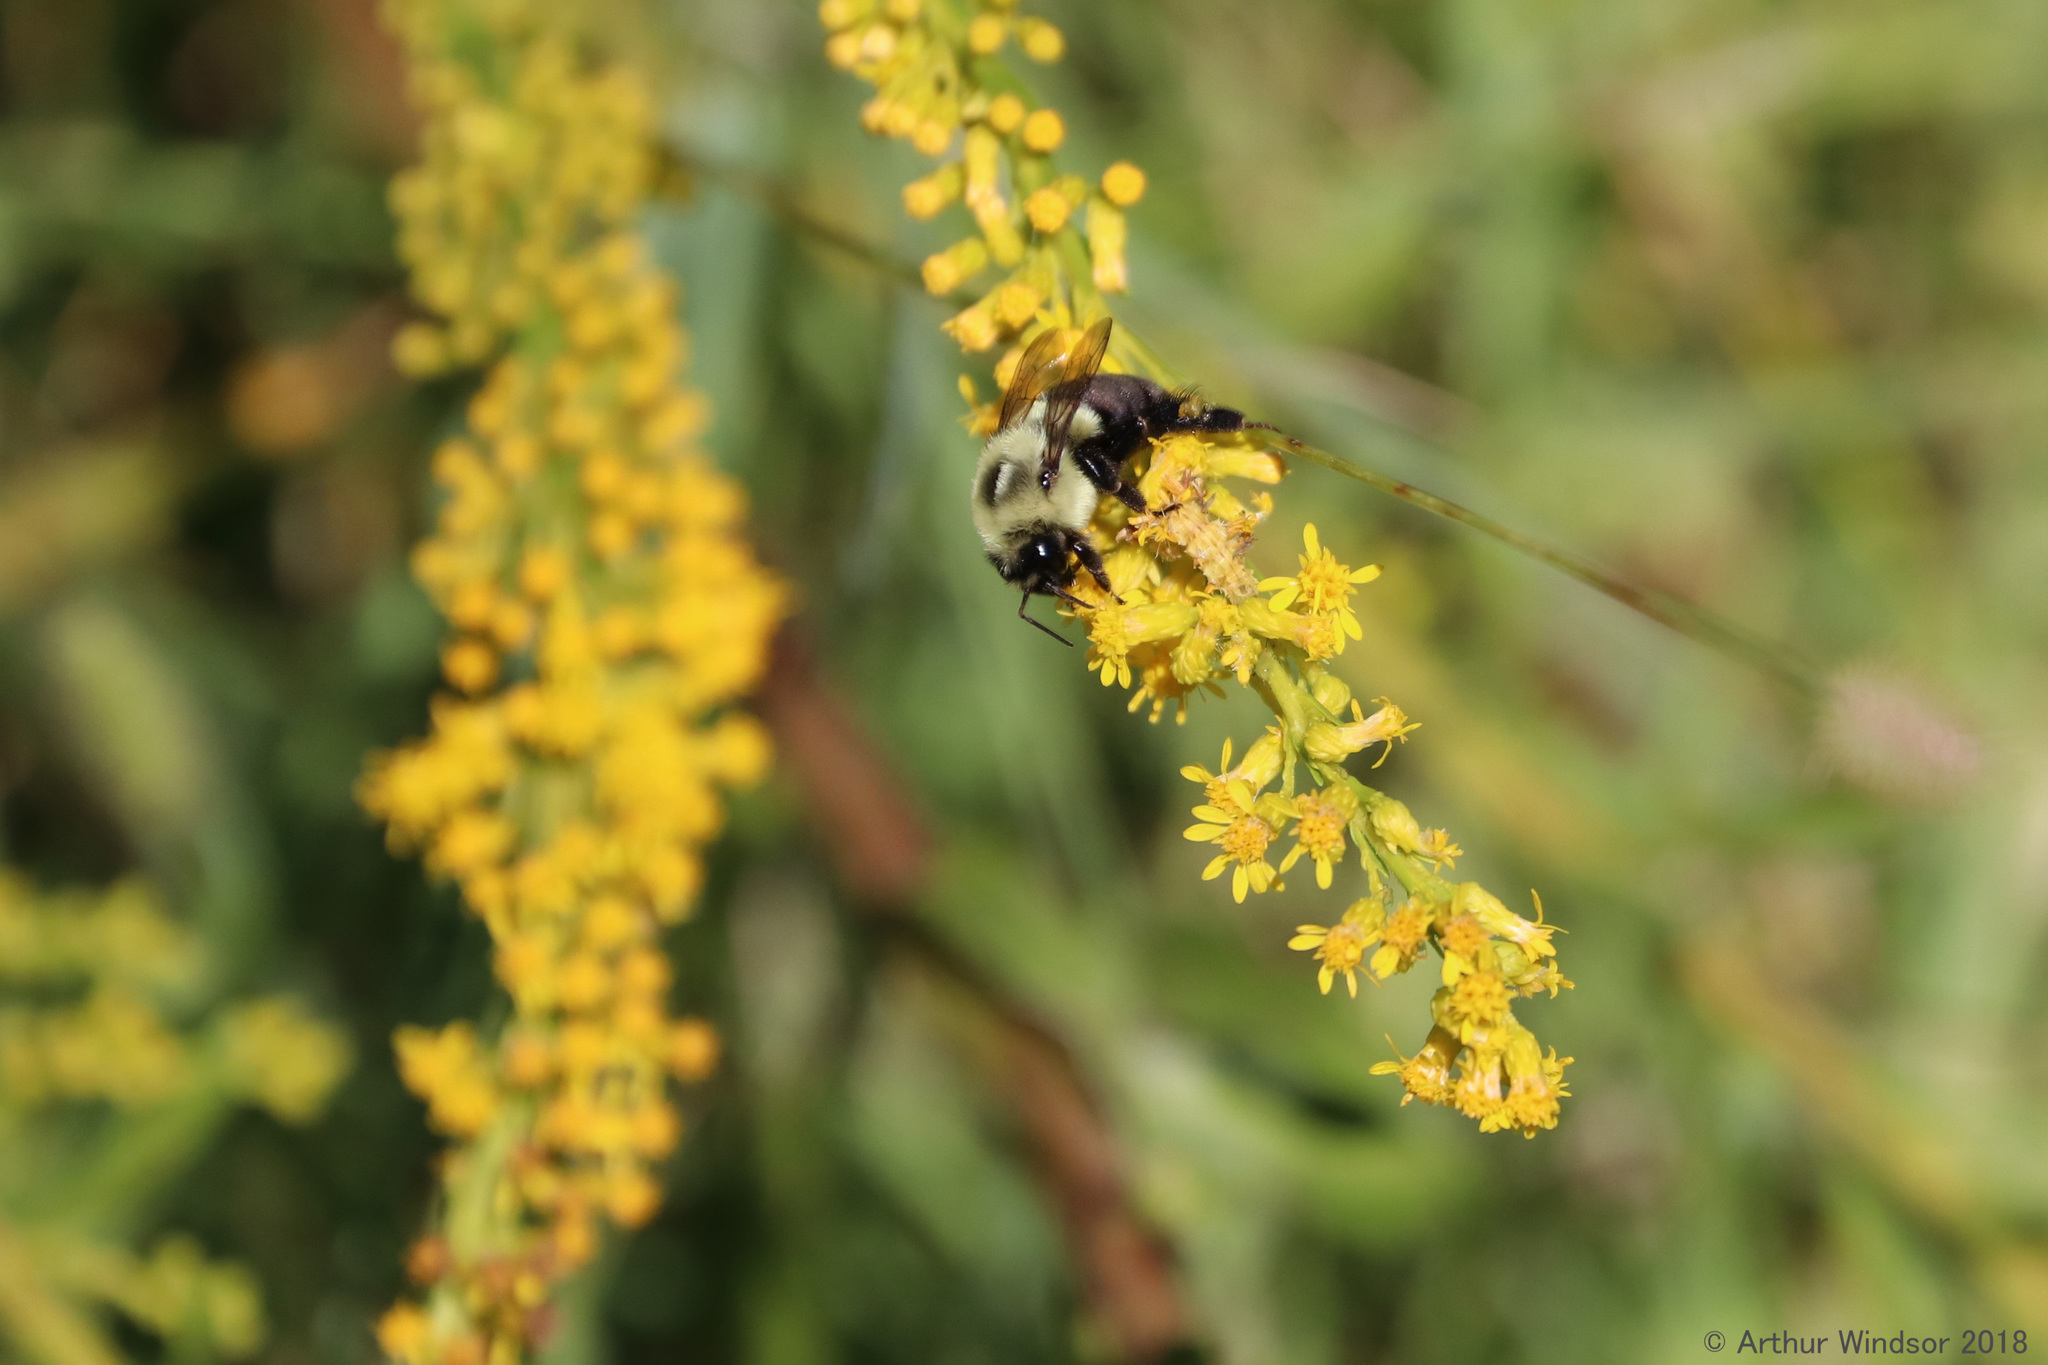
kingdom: Animalia
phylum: Arthropoda
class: Insecta
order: Hymenoptera
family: Apidae
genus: Bombus
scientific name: Bombus impatiens
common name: Common eastern bumble bee
